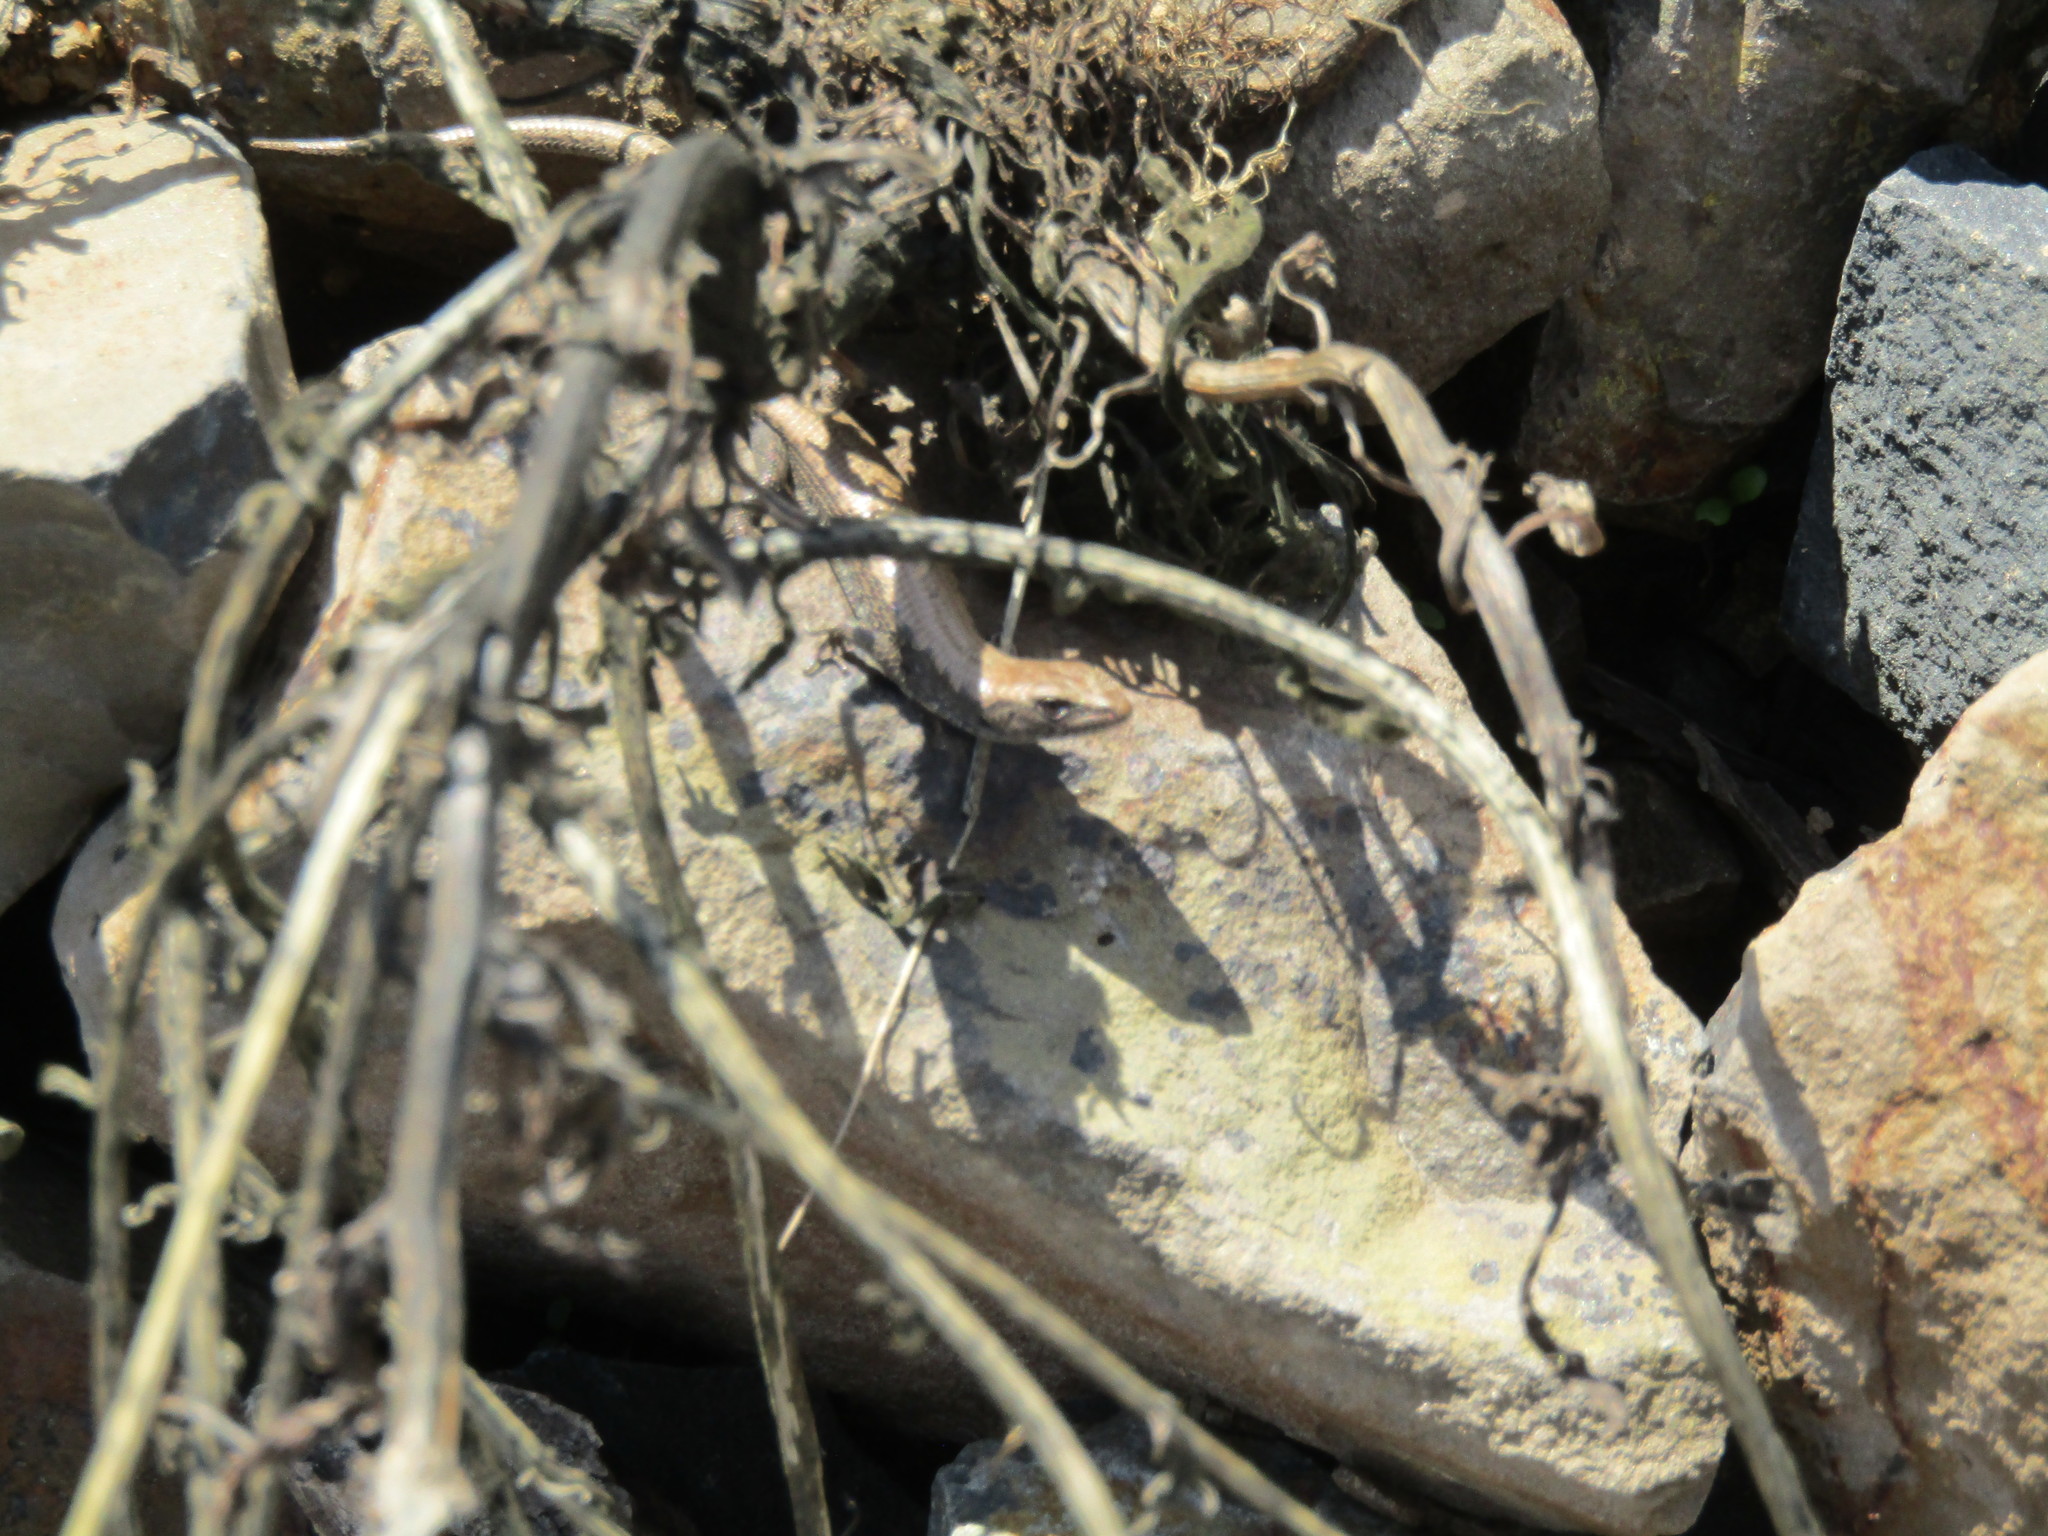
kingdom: Animalia
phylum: Chordata
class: Squamata
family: Anguidae
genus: Elgaria
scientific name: Elgaria coerulea
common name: Northern alligator lizard
